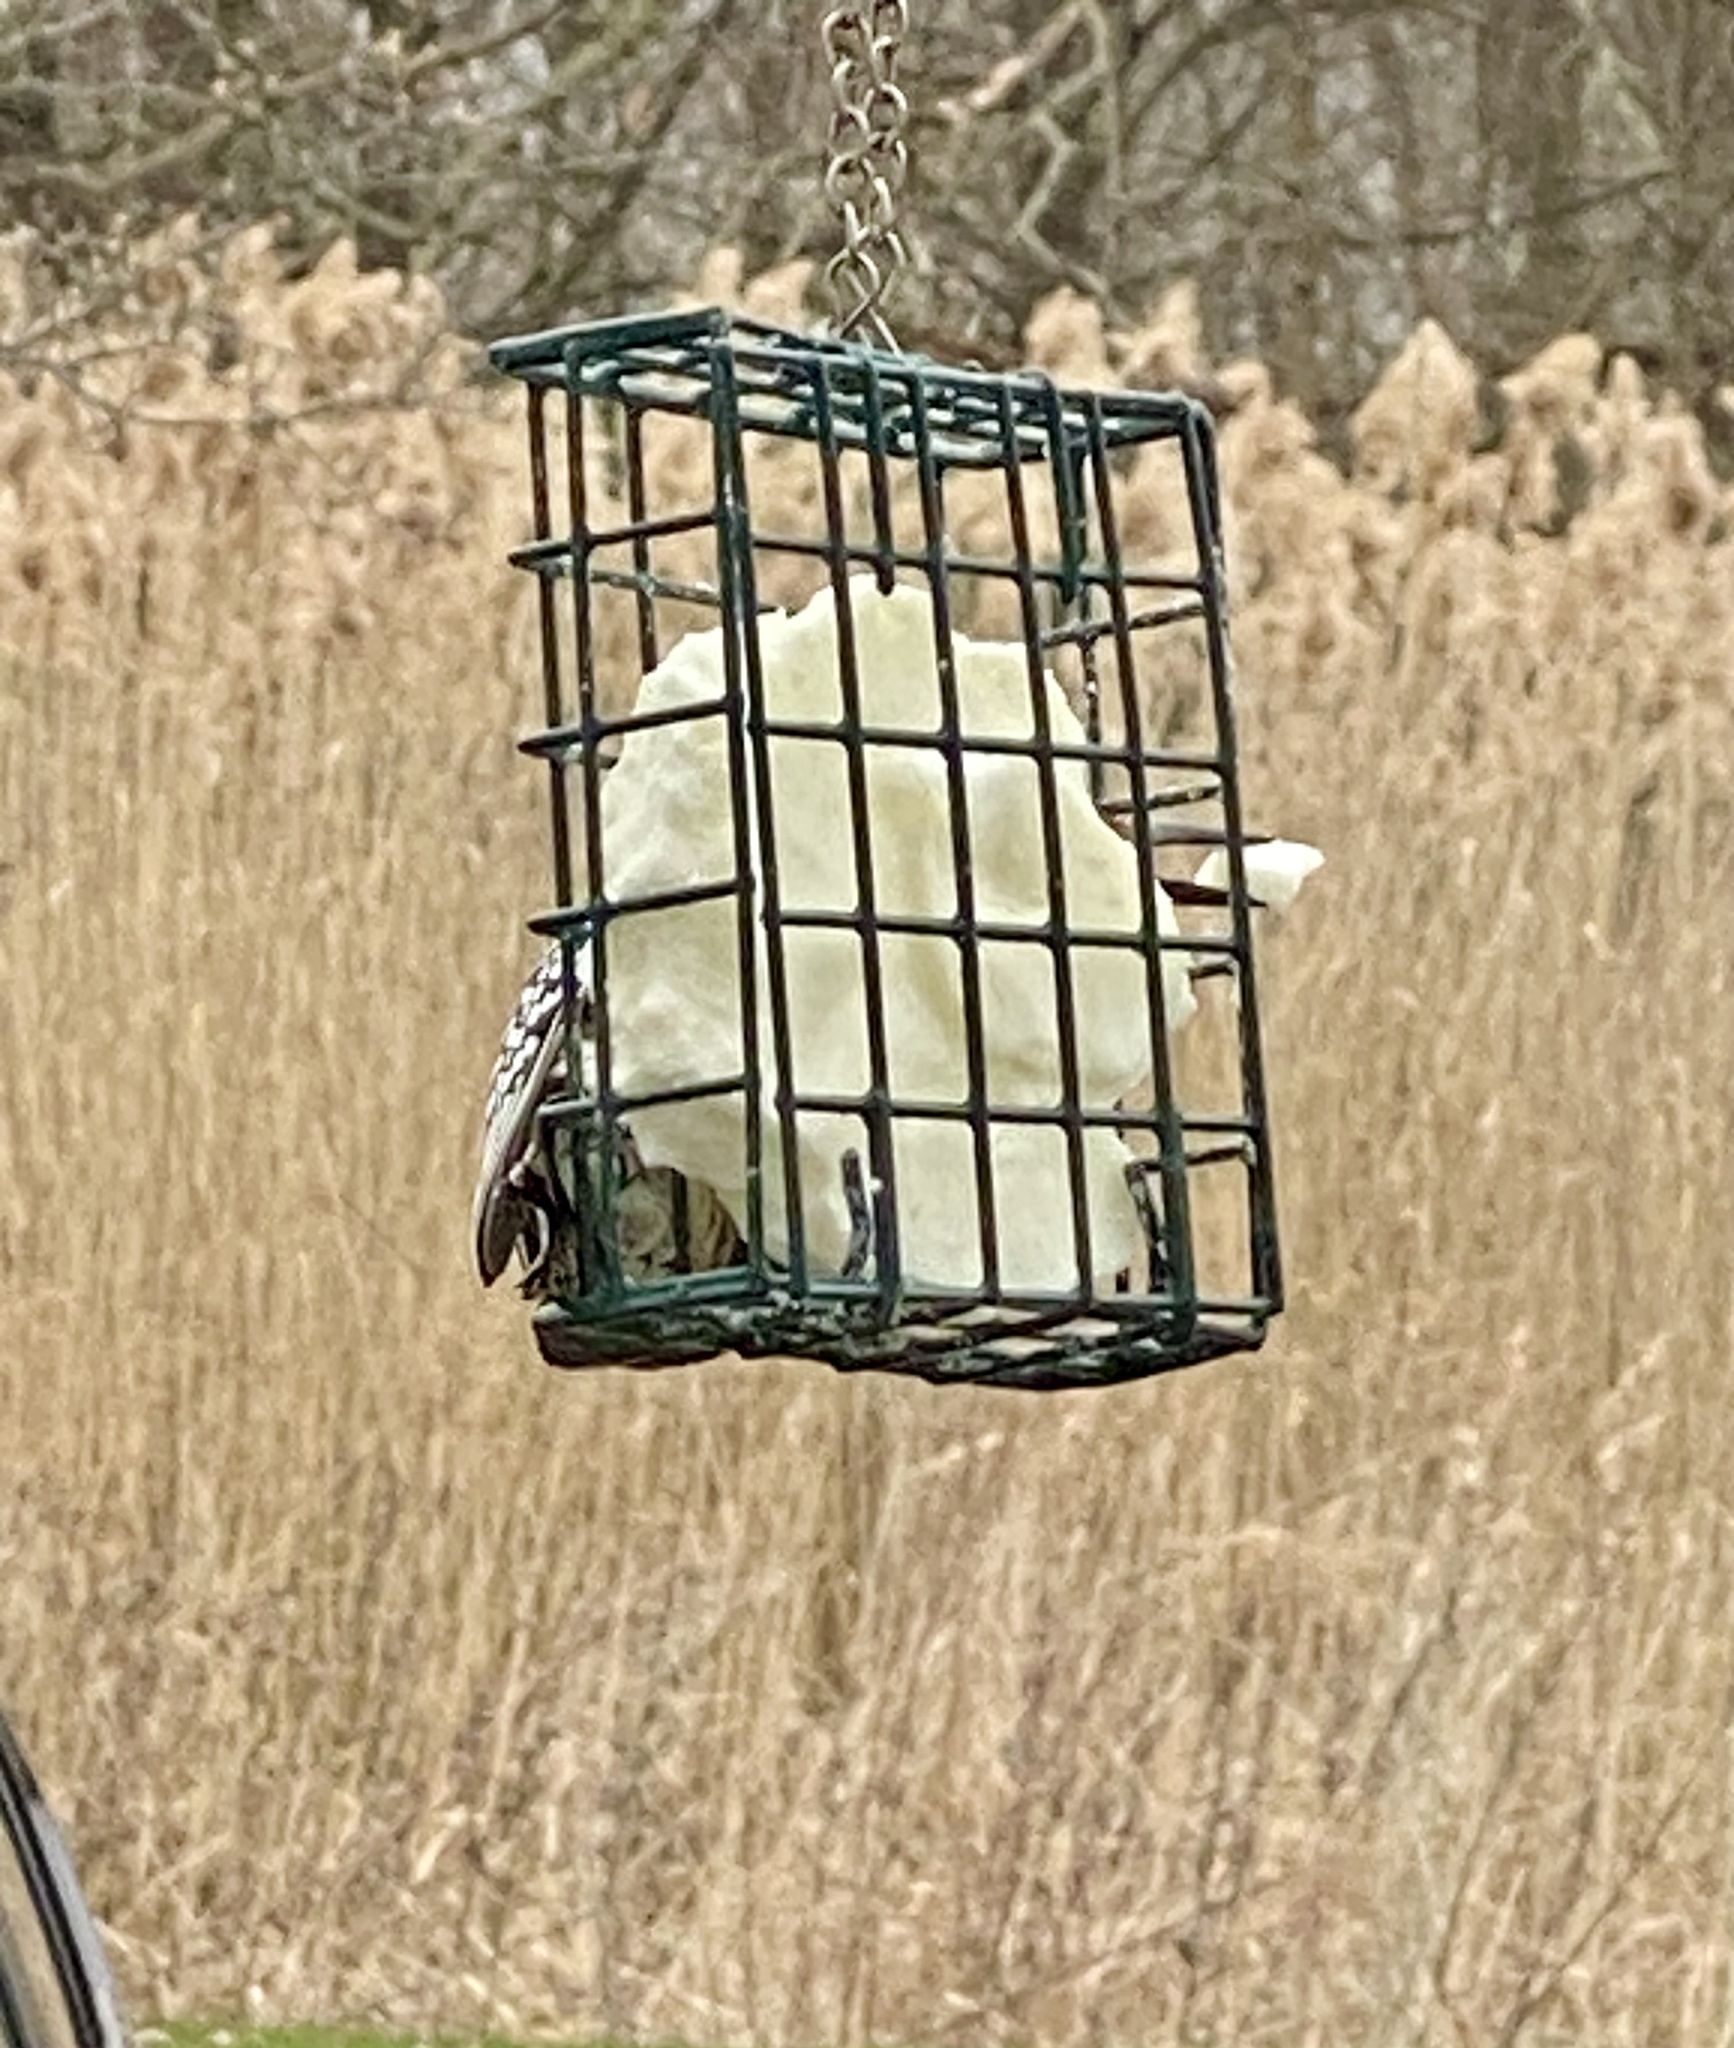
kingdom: Animalia
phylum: Chordata
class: Aves
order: Piciformes
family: Picidae
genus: Melanerpes
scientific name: Melanerpes carolinus
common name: Red-bellied woodpecker
